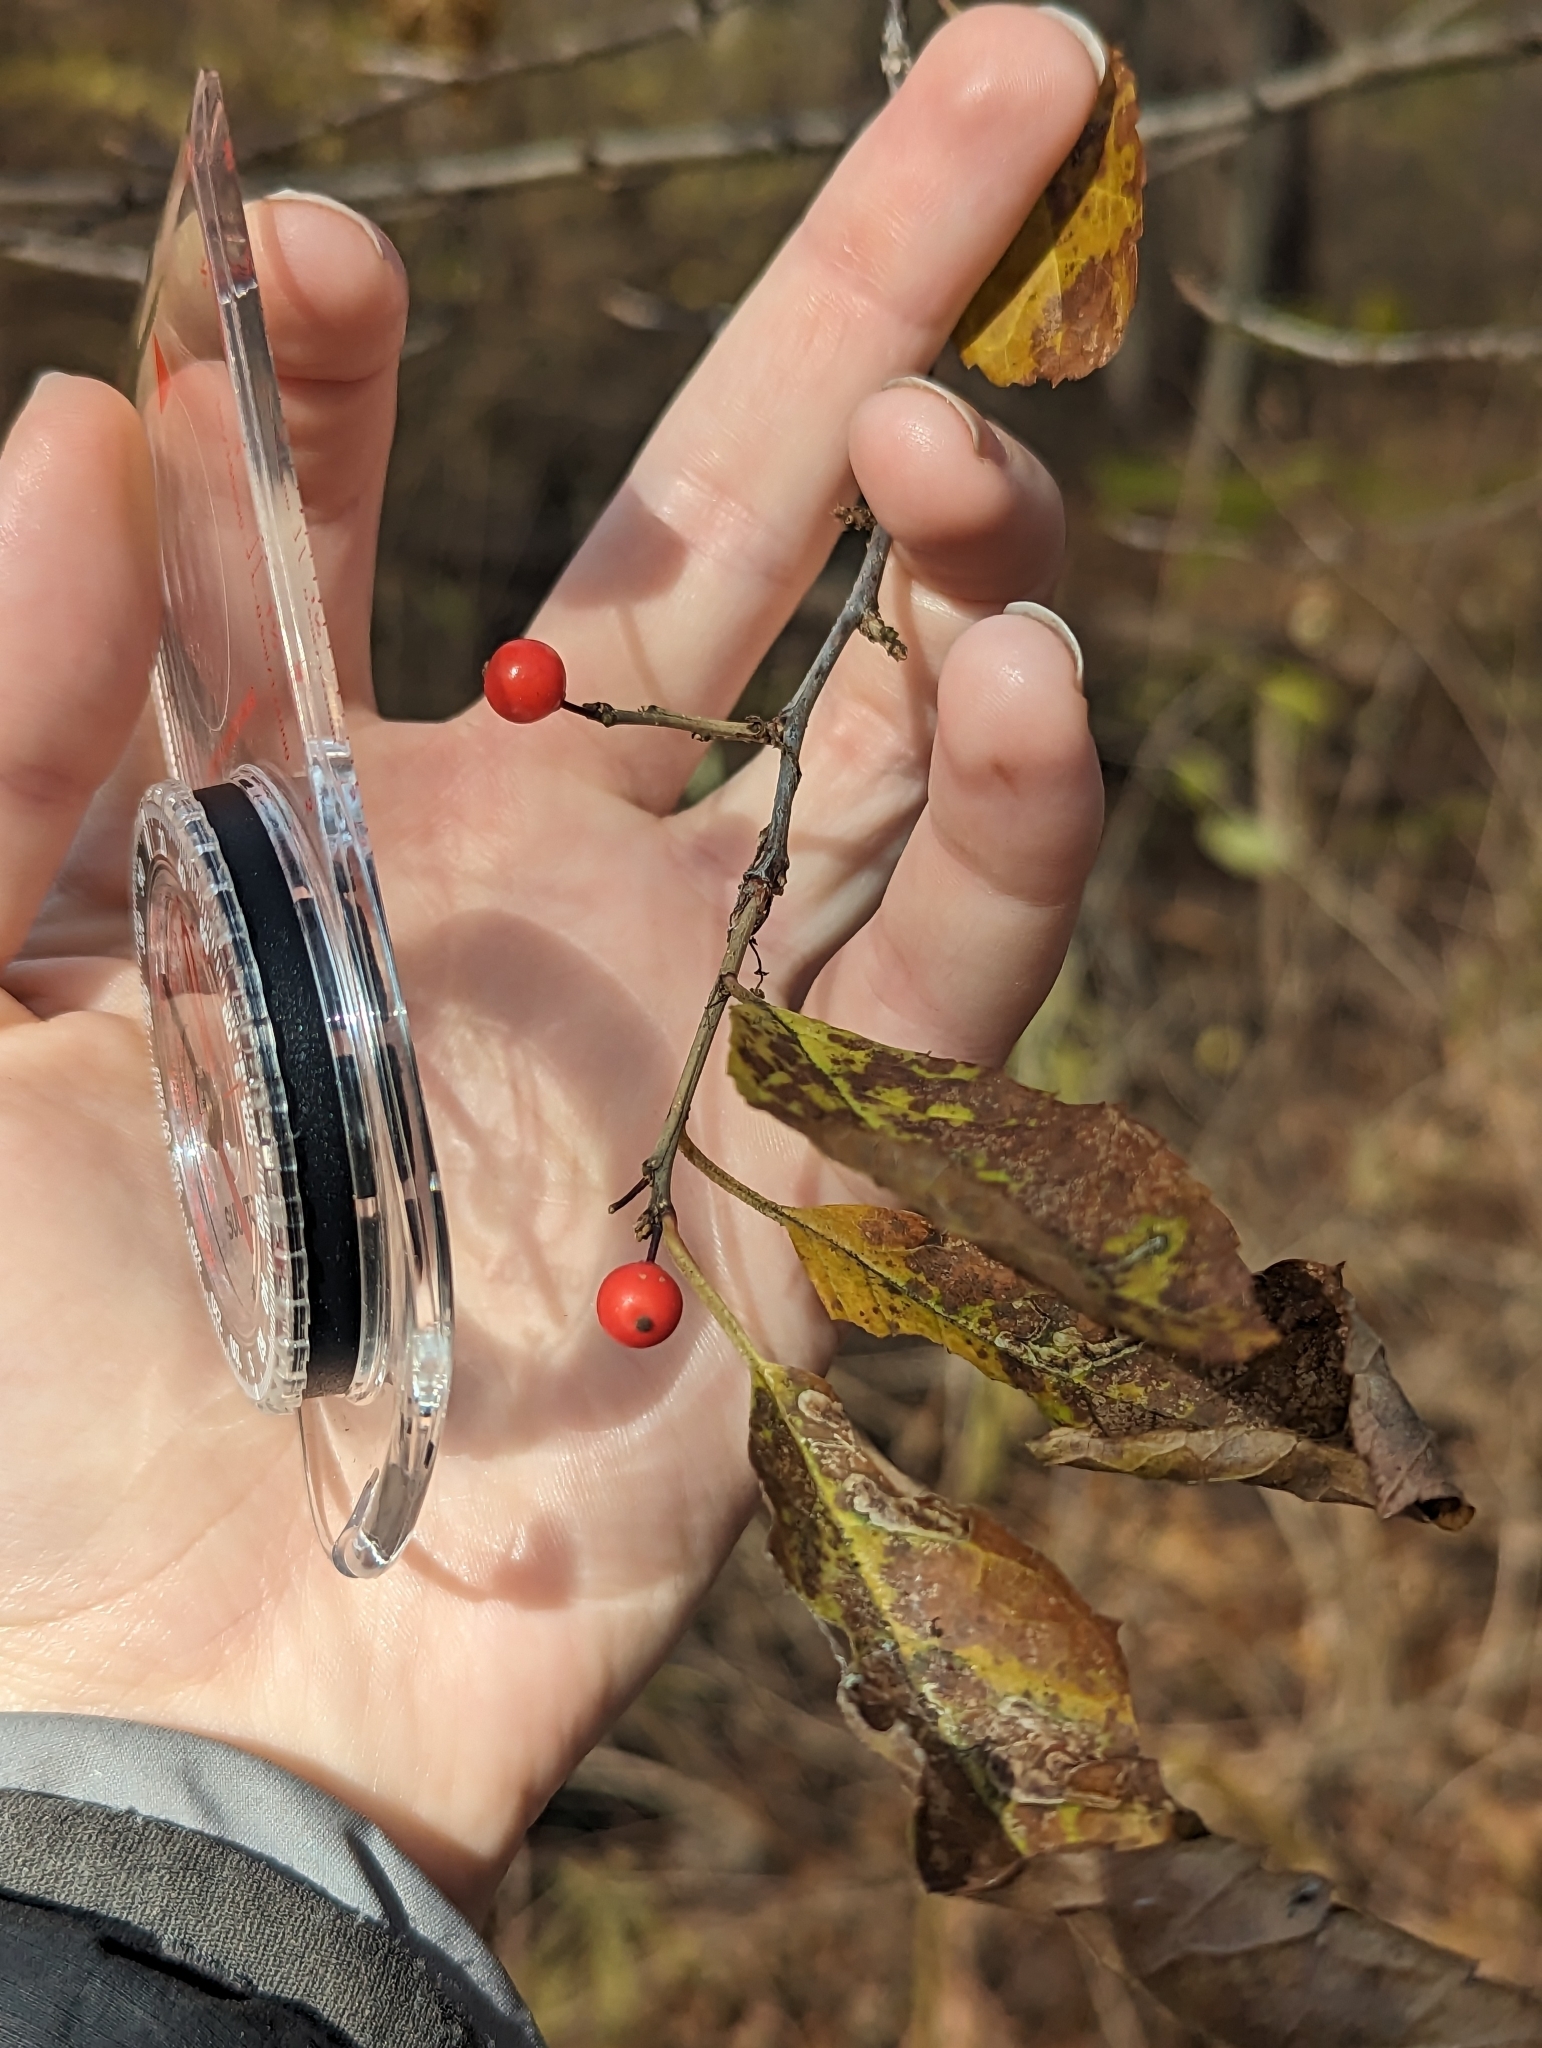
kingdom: Plantae
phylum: Tracheophyta
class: Magnoliopsida
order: Aquifoliales
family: Aquifoliaceae
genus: Ilex
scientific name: Ilex verticillata
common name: Virginia winterberry
